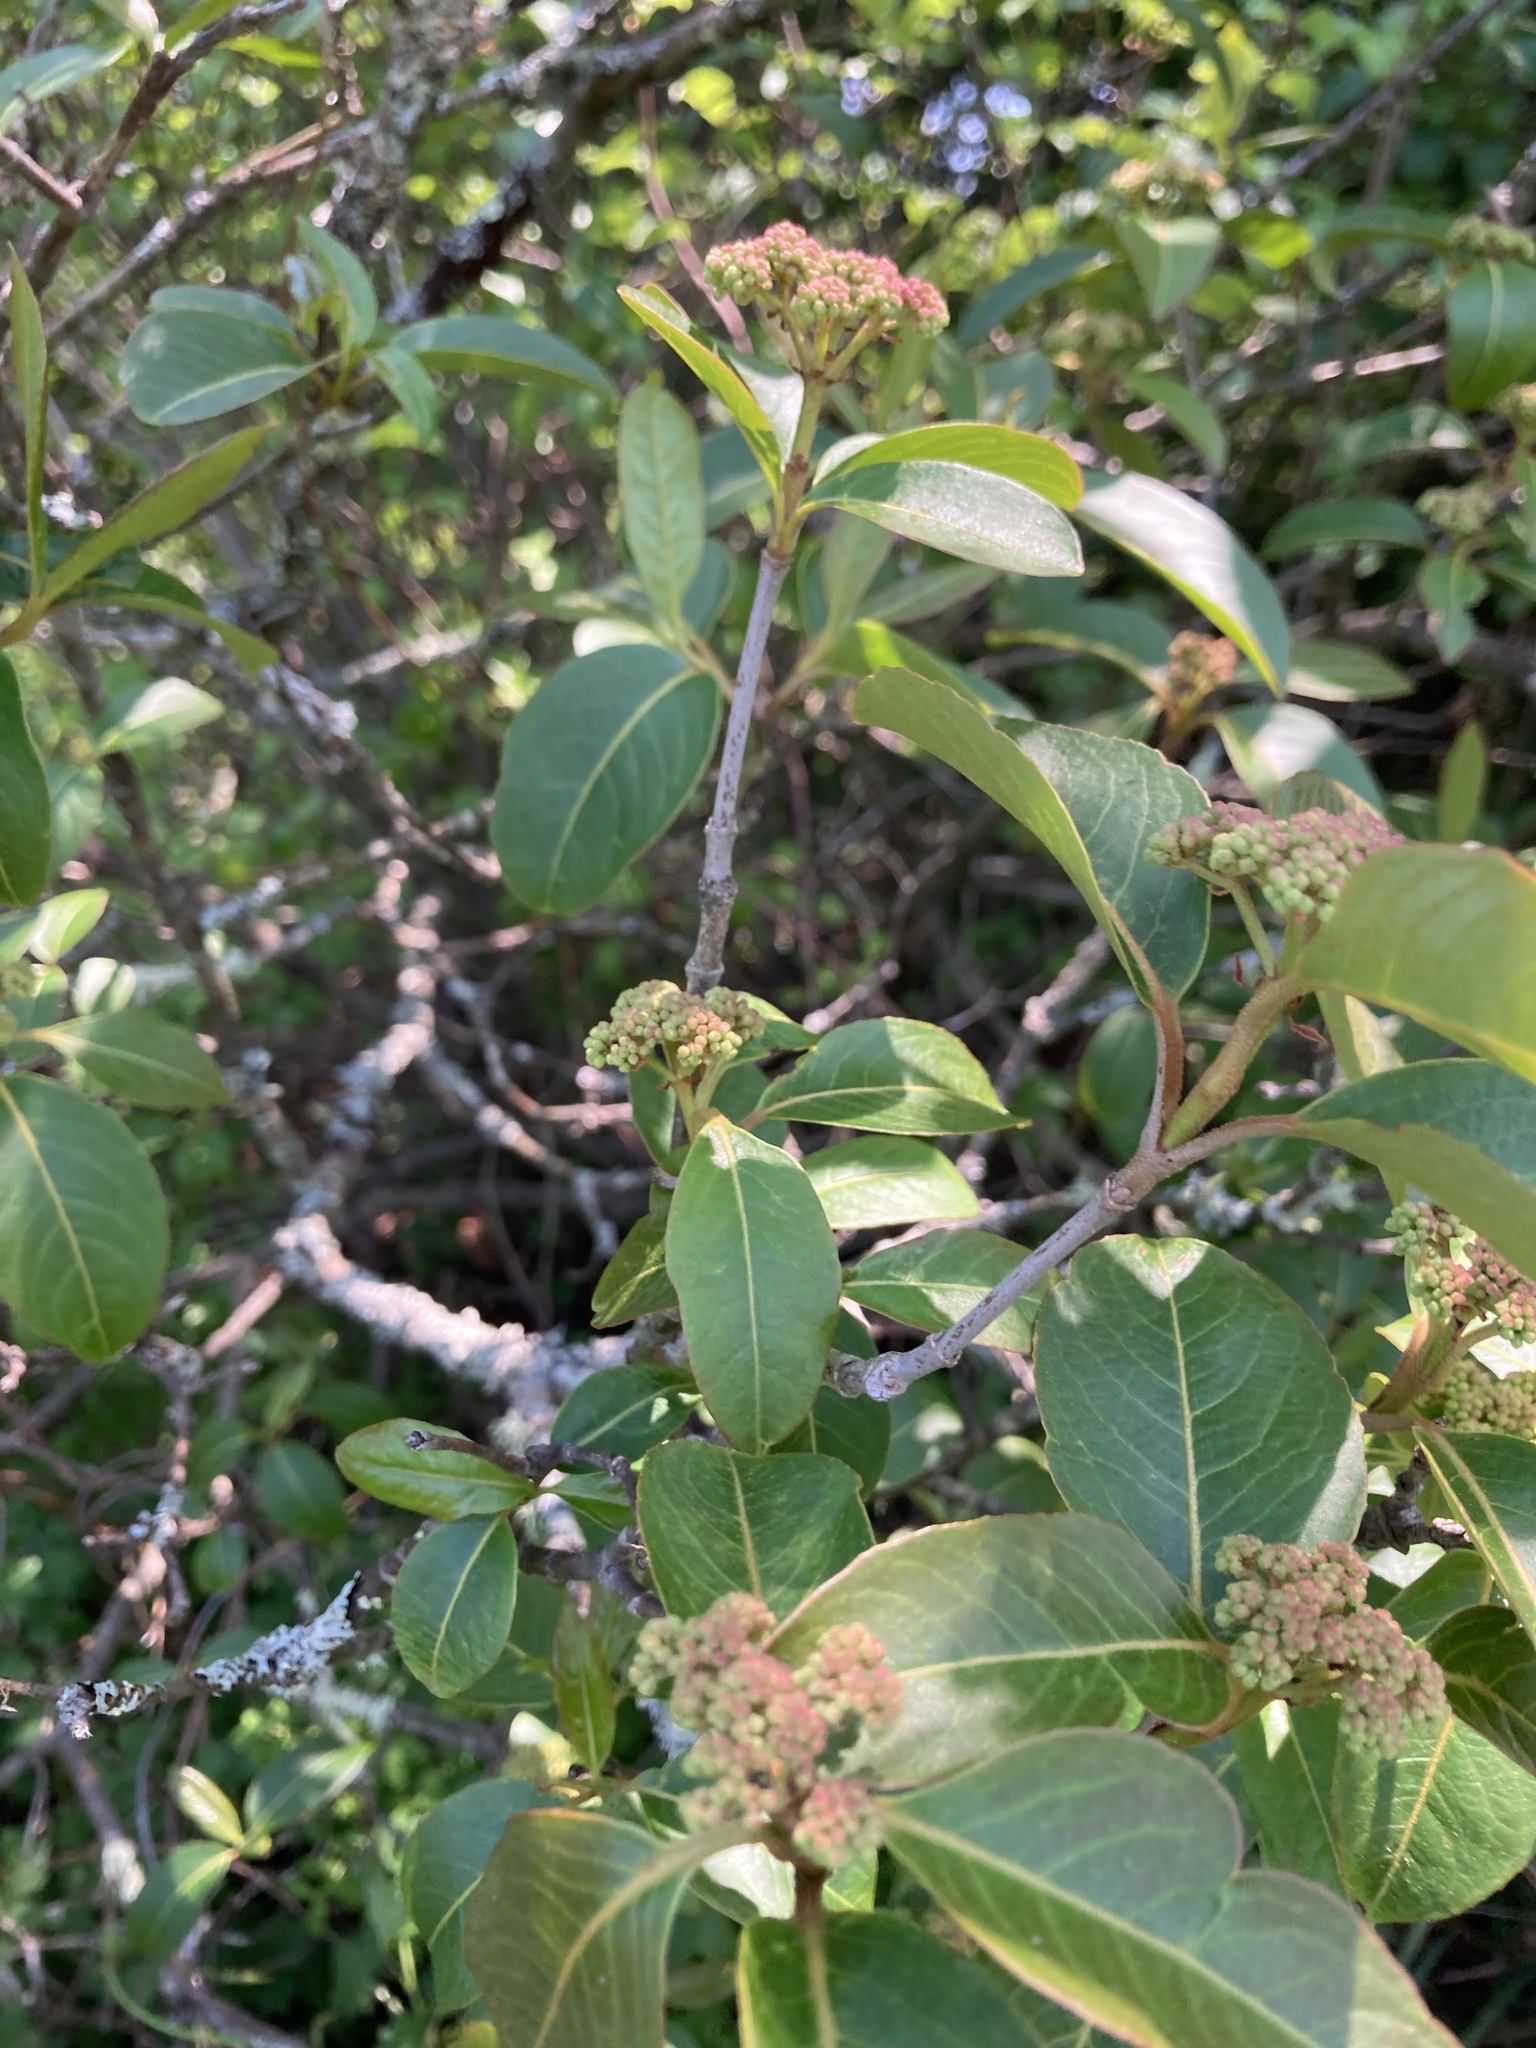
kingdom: Plantae
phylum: Tracheophyta
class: Magnoliopsida
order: Dipsacales
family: Viburnaceae
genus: Viburnum
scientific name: Viburnum cassinoides
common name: Swamp haw
